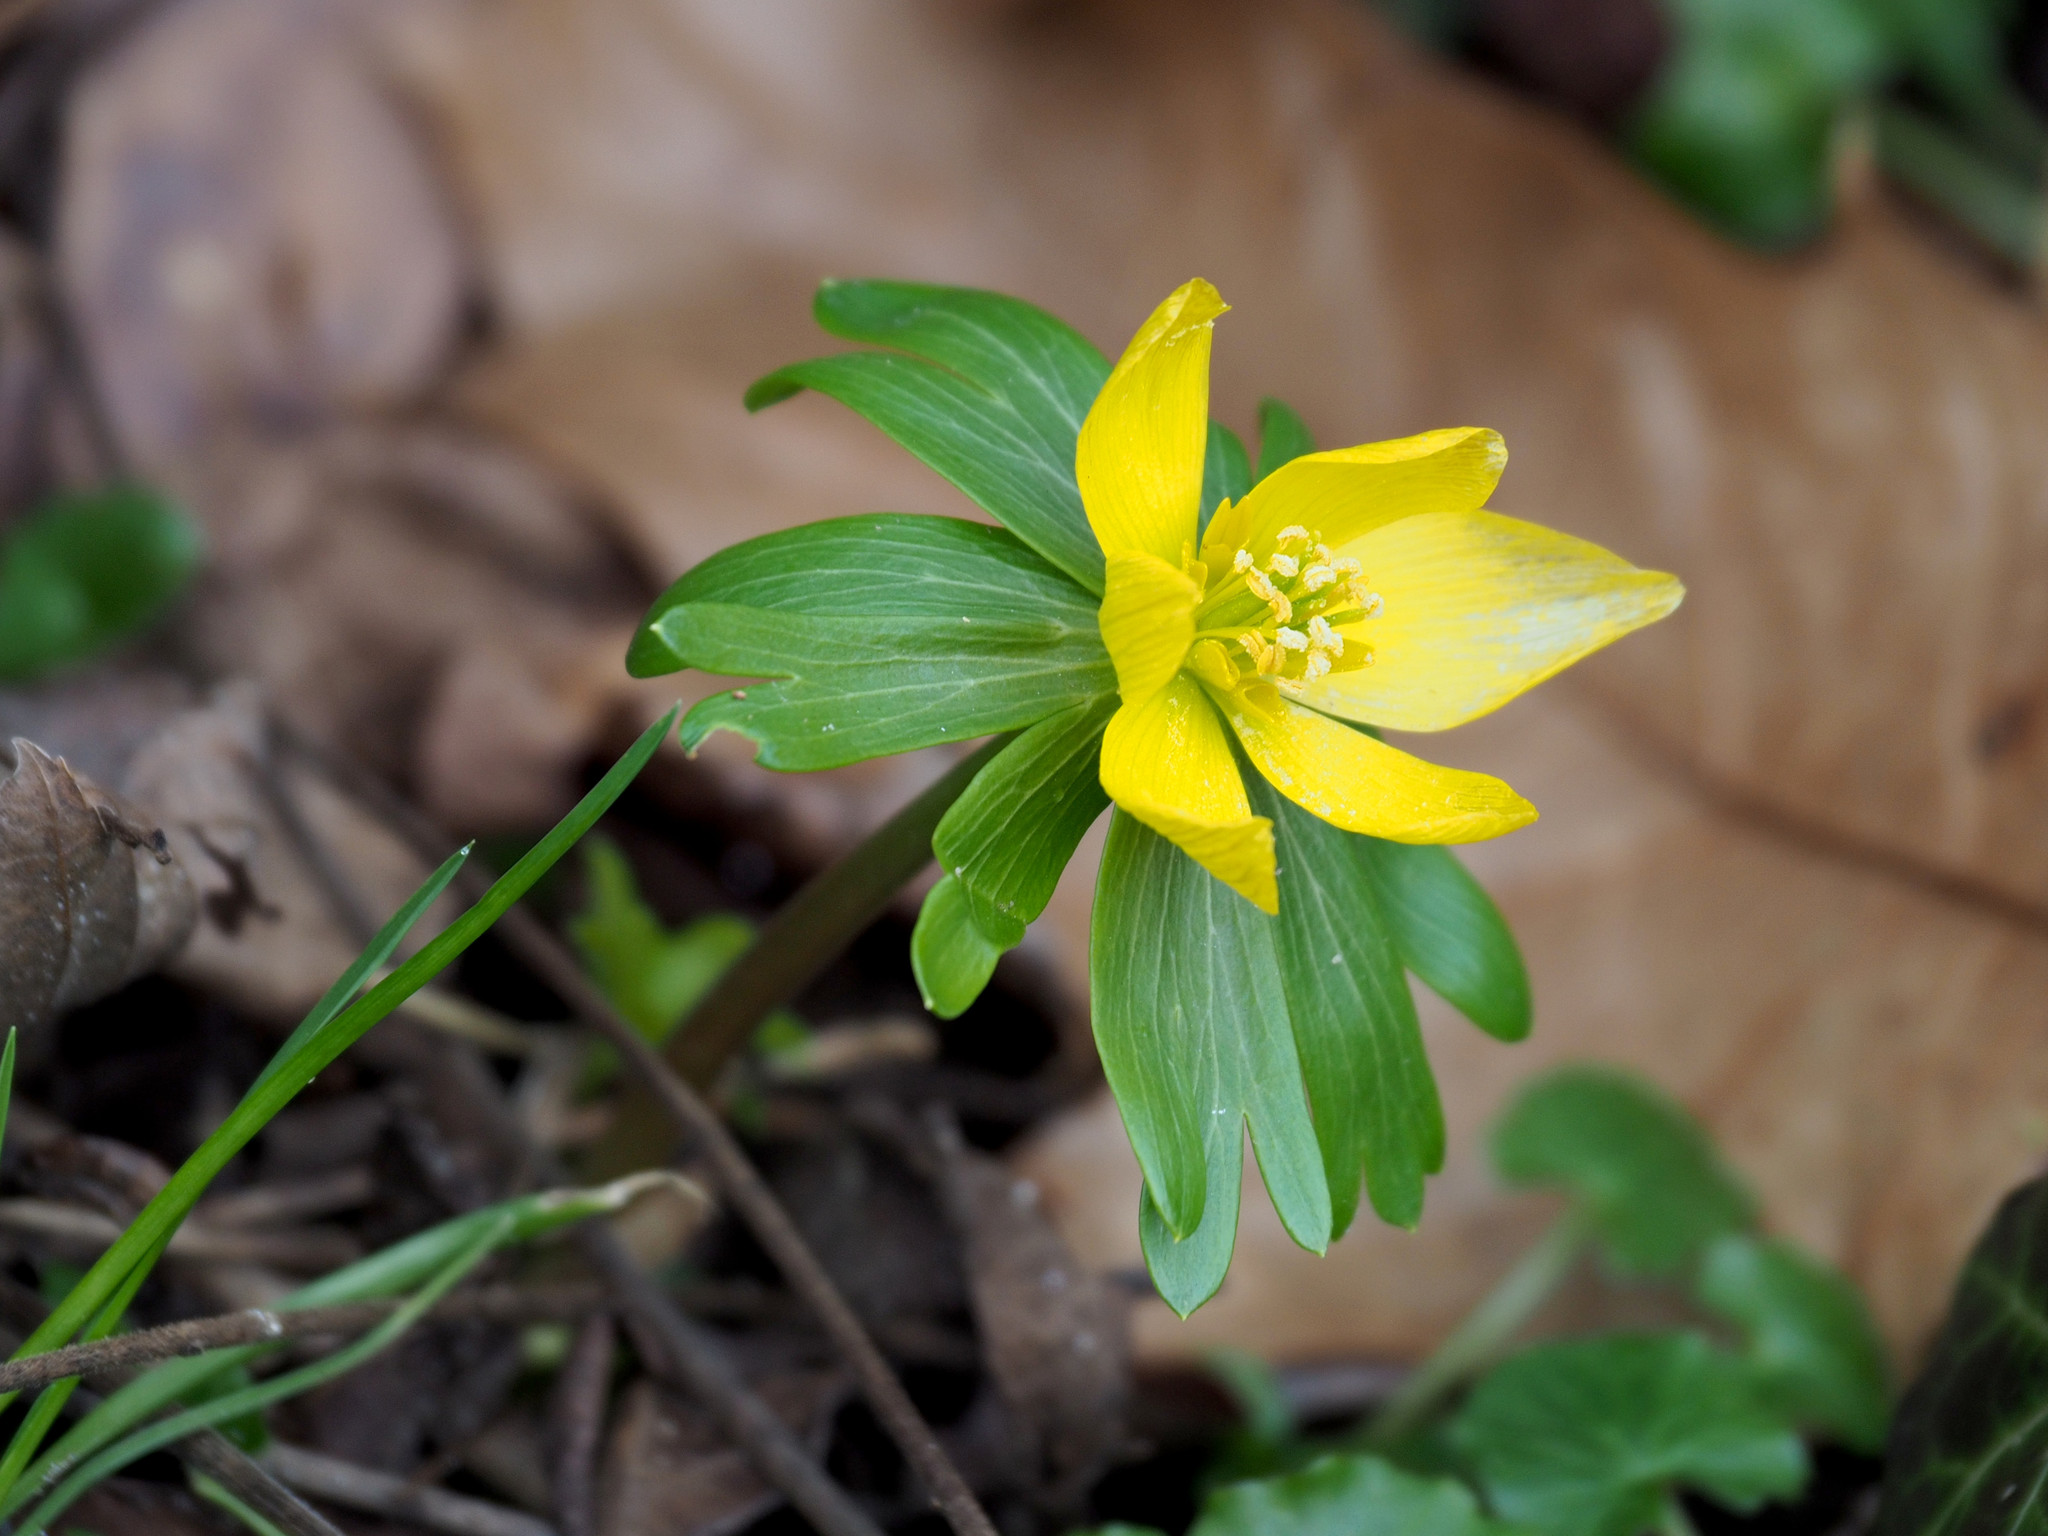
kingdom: Plantae
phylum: Tracheophyta
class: Magnoliopsida
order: Ranunculales
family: Ranunculaceae
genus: Eranthis
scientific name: Eranthis hyemalis
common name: Winter aconite
